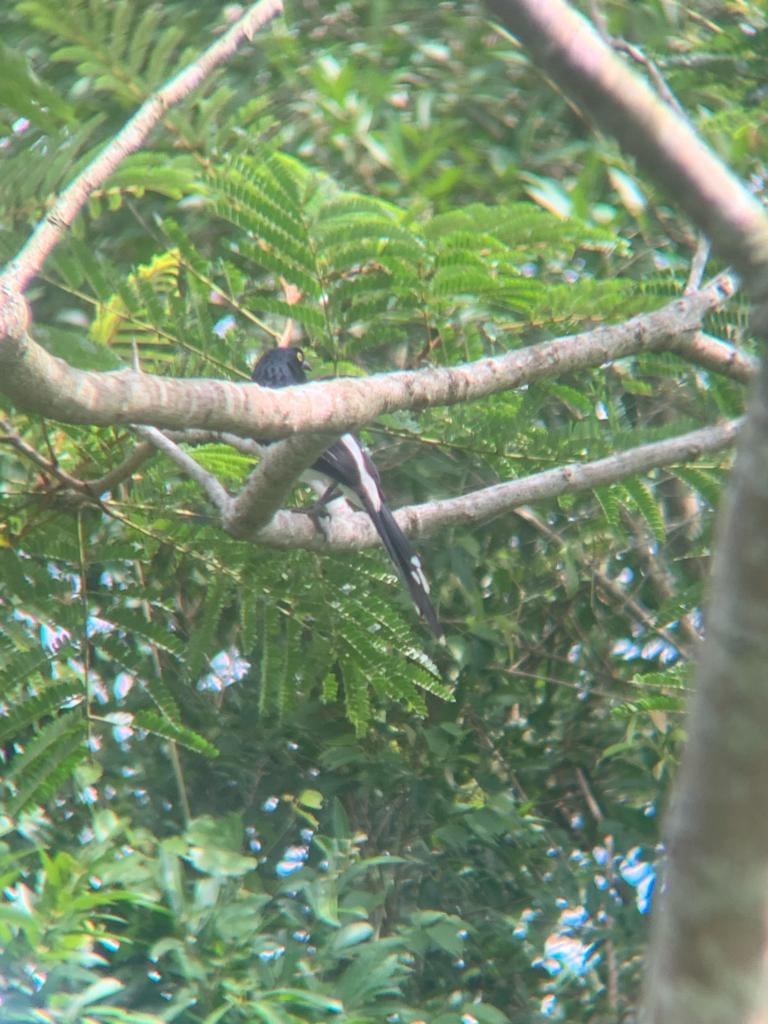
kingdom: Animalia
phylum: Chordata
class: Aves
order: Passeriformes
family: Thraupidae
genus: Cissopis
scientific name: Cissopis leverianus
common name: Magpie tanager
